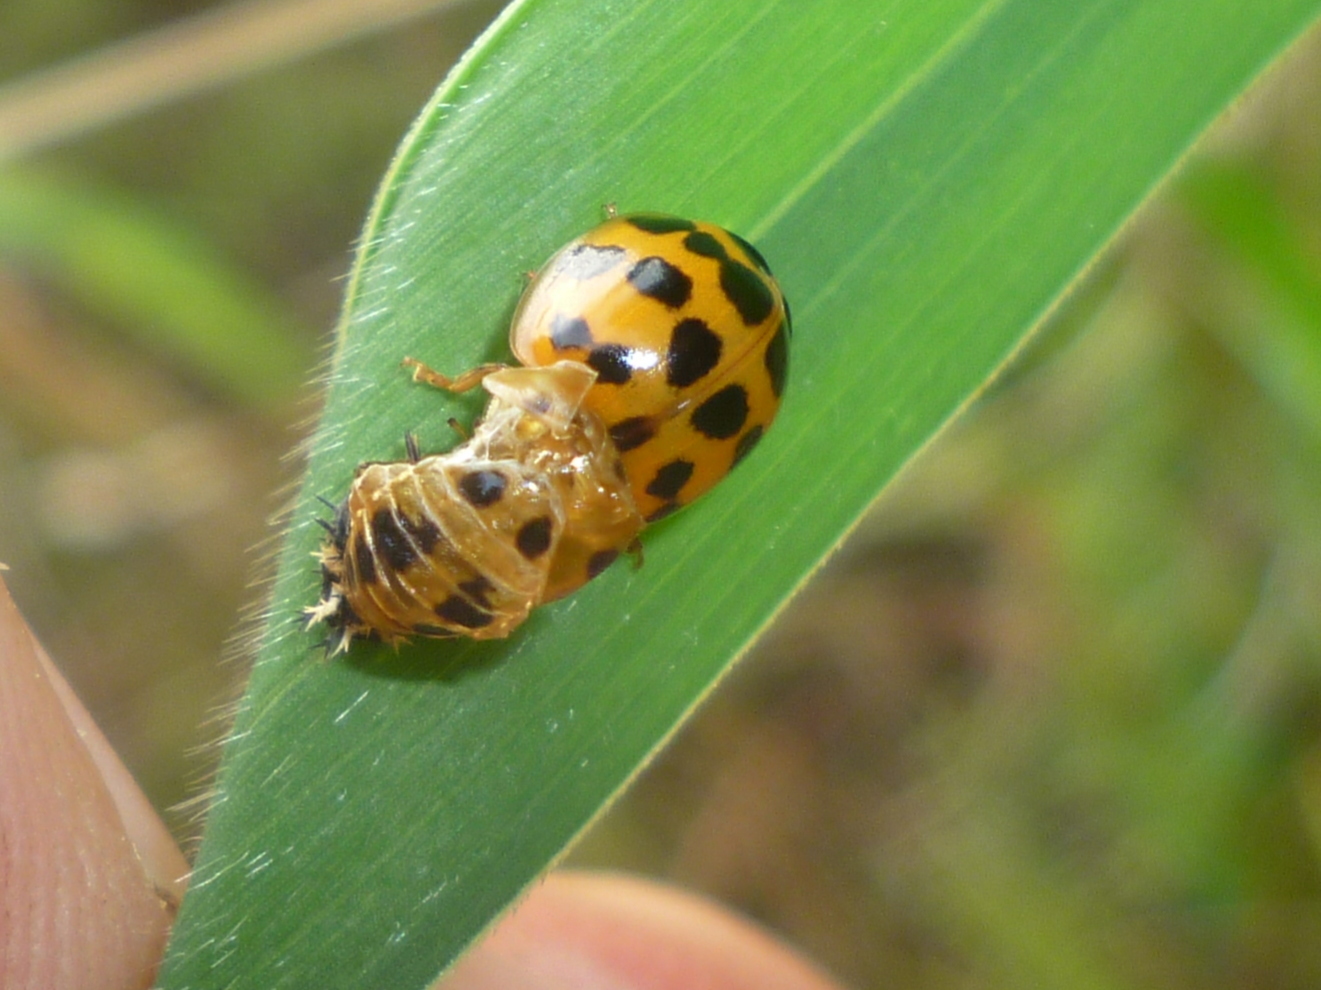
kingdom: Animalia
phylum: Arthropoda
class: Insecta
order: Coleoptera
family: Coccinellidae
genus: Harmonia
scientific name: Harmonia axyridis
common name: Harlequin ladybird
